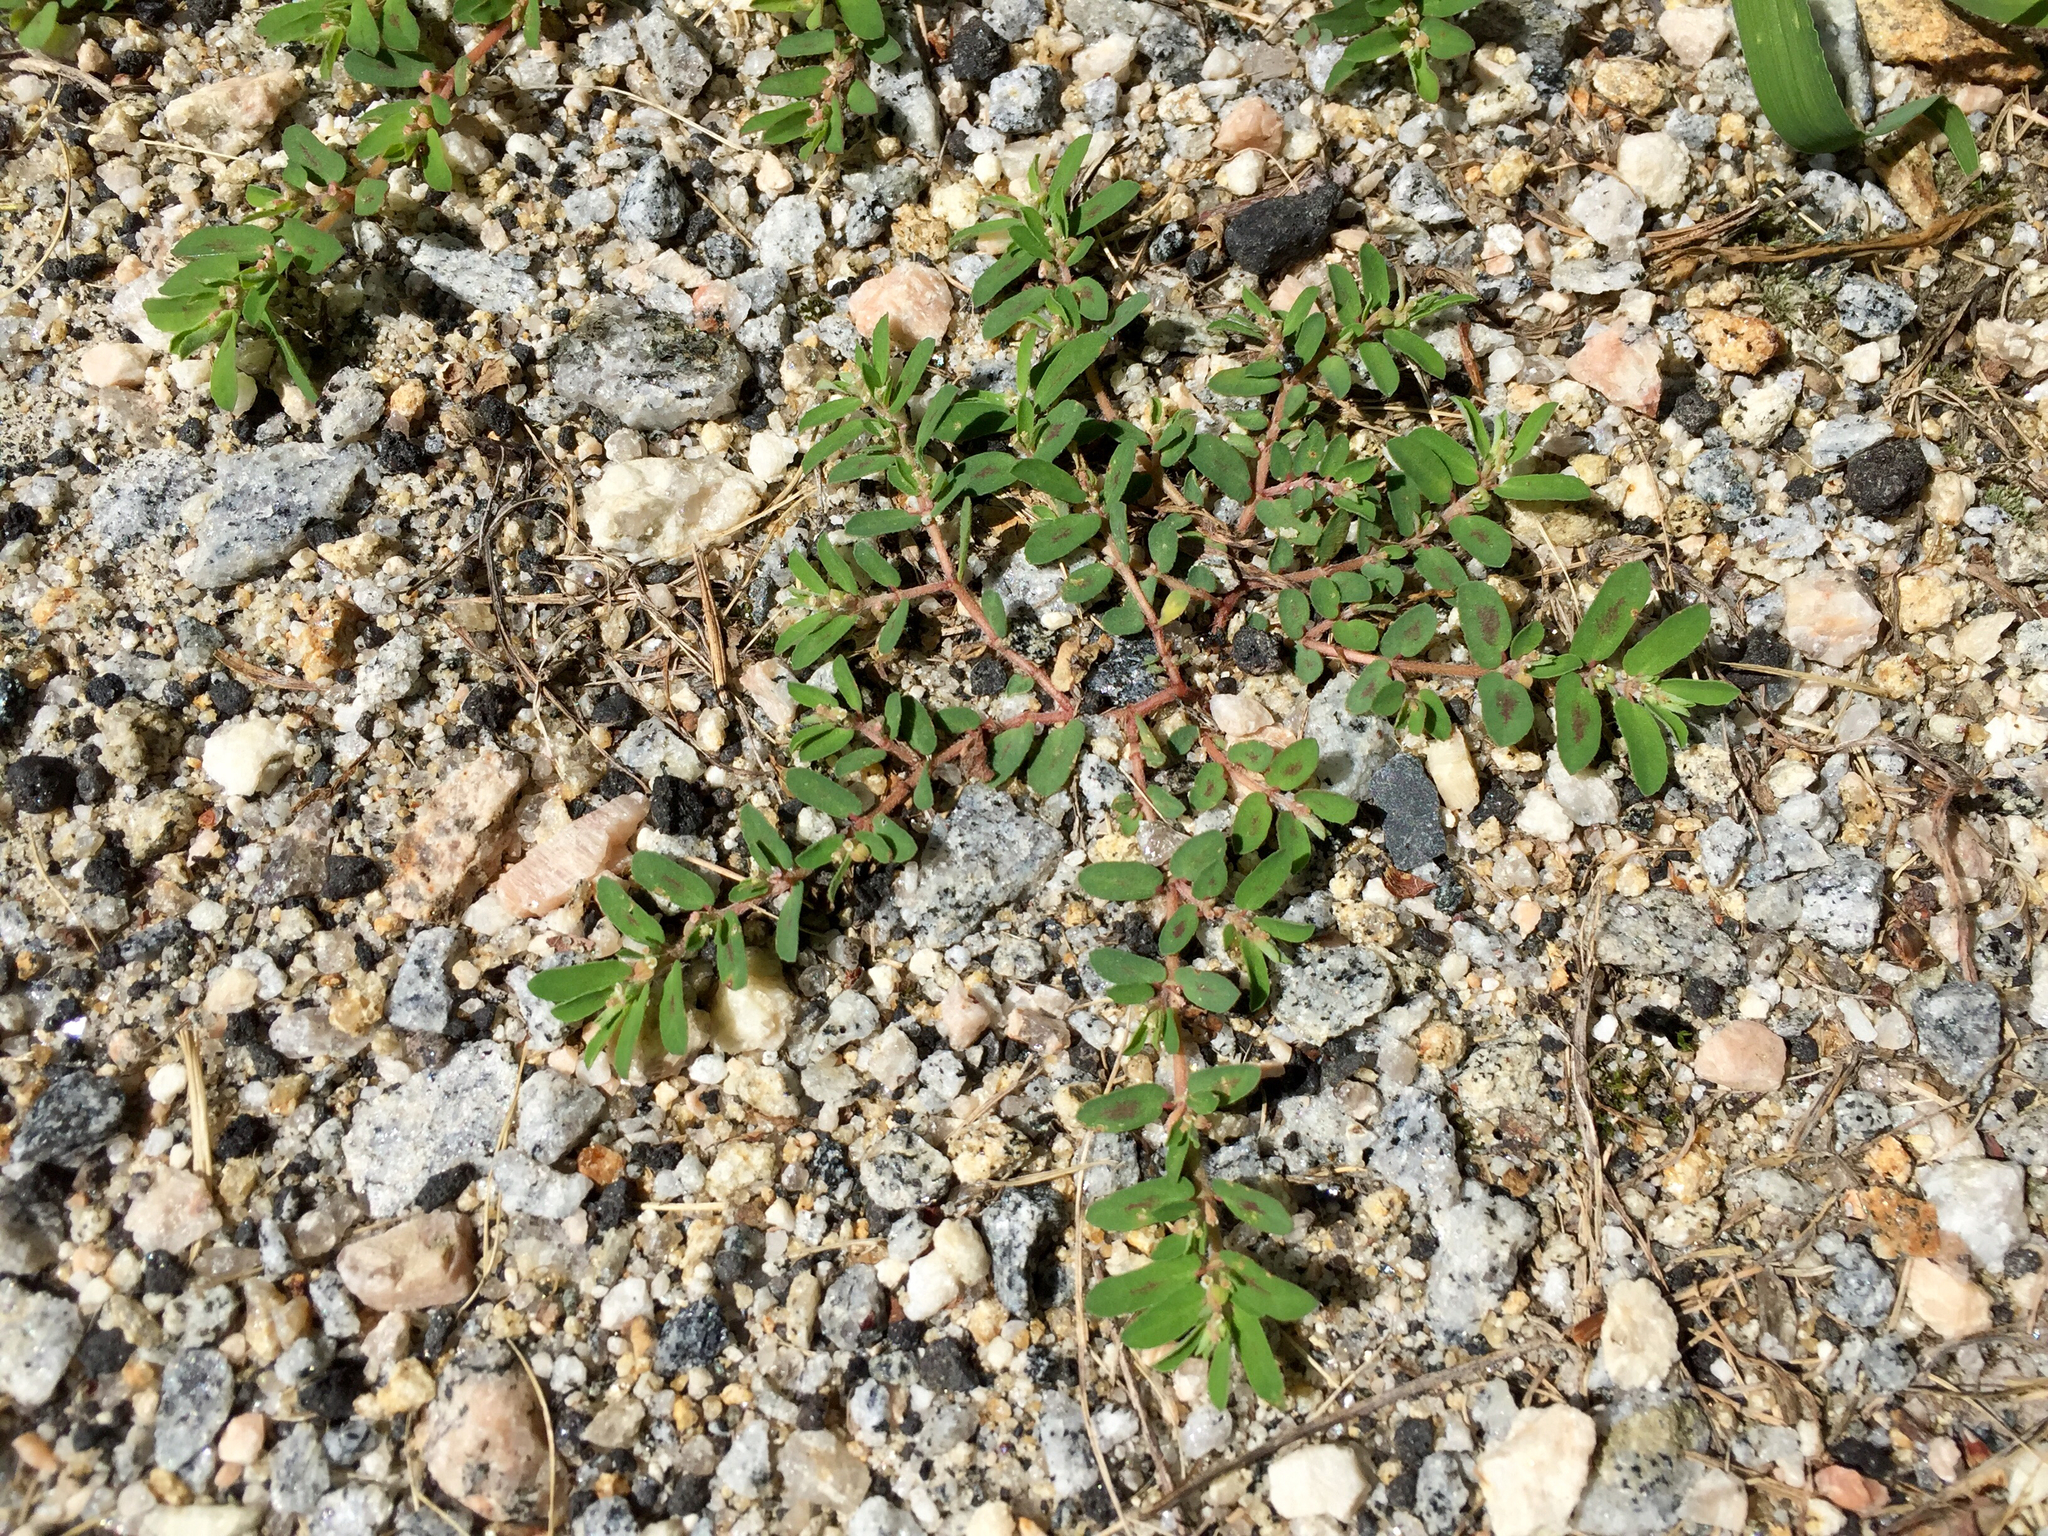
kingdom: Plantae
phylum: Tracheophyta
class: Magnoliopsida
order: Malpighiales
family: Euphorbiaceae
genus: Euphorbia
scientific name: Euphorbia maculata
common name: Spotted spurge
